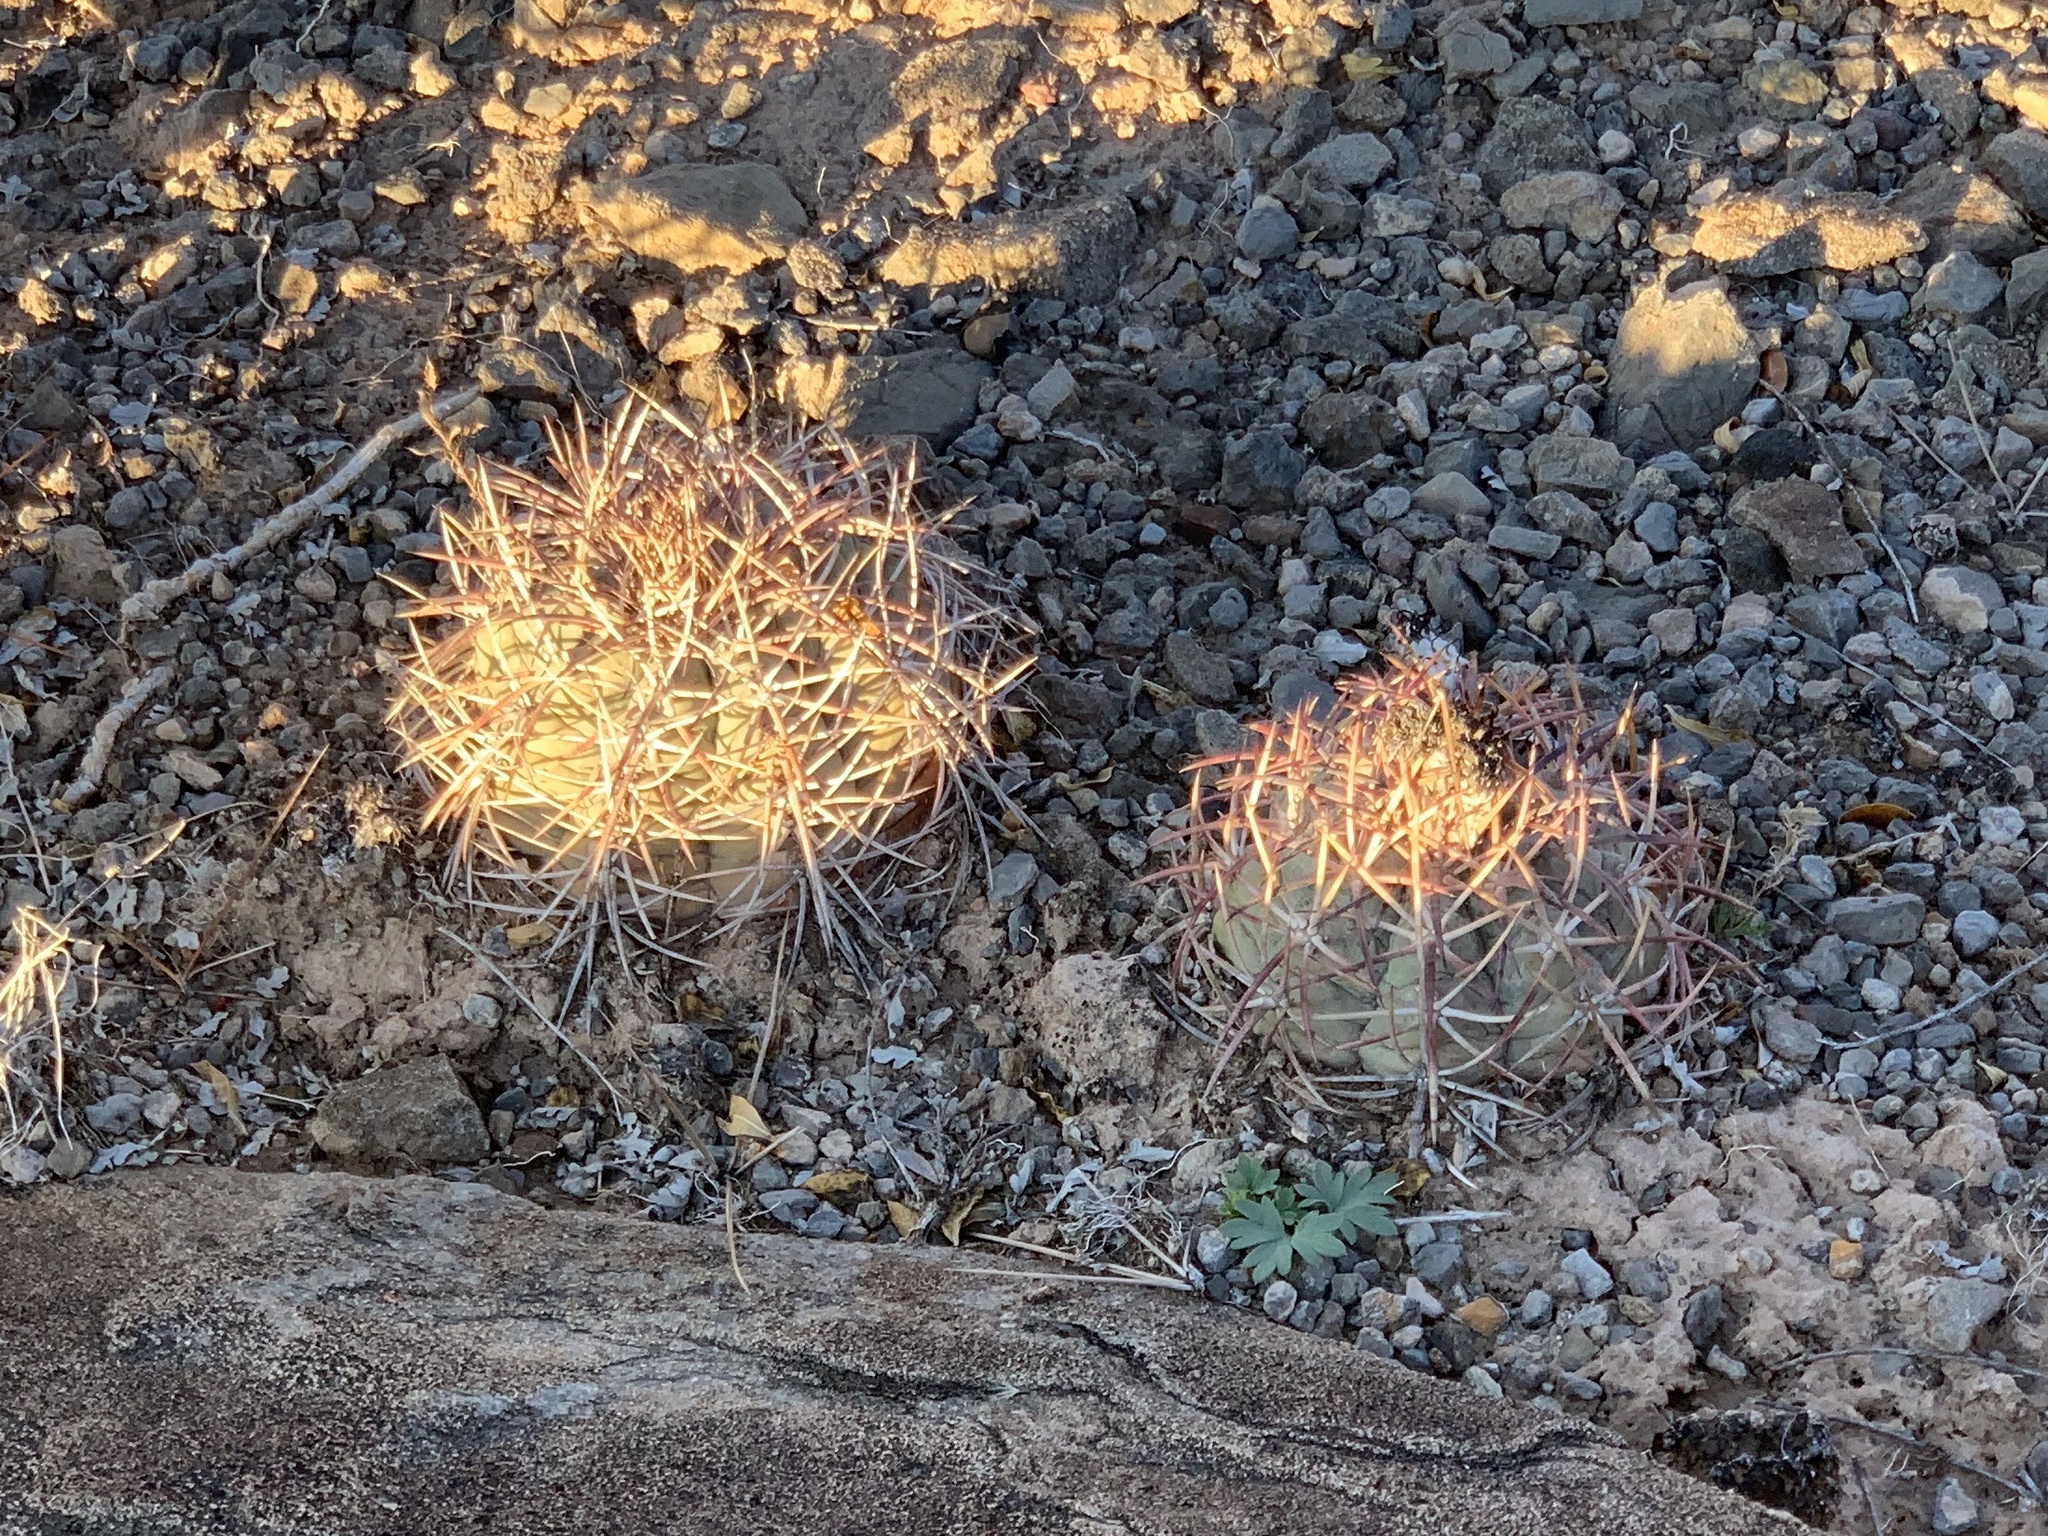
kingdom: Plantae
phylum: Tracheophyta
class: Magnoliopsida
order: Caryophyllales
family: Cactaceae
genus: Echinocactus
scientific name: Echinocactus horizonthalonius
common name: Devilshead
